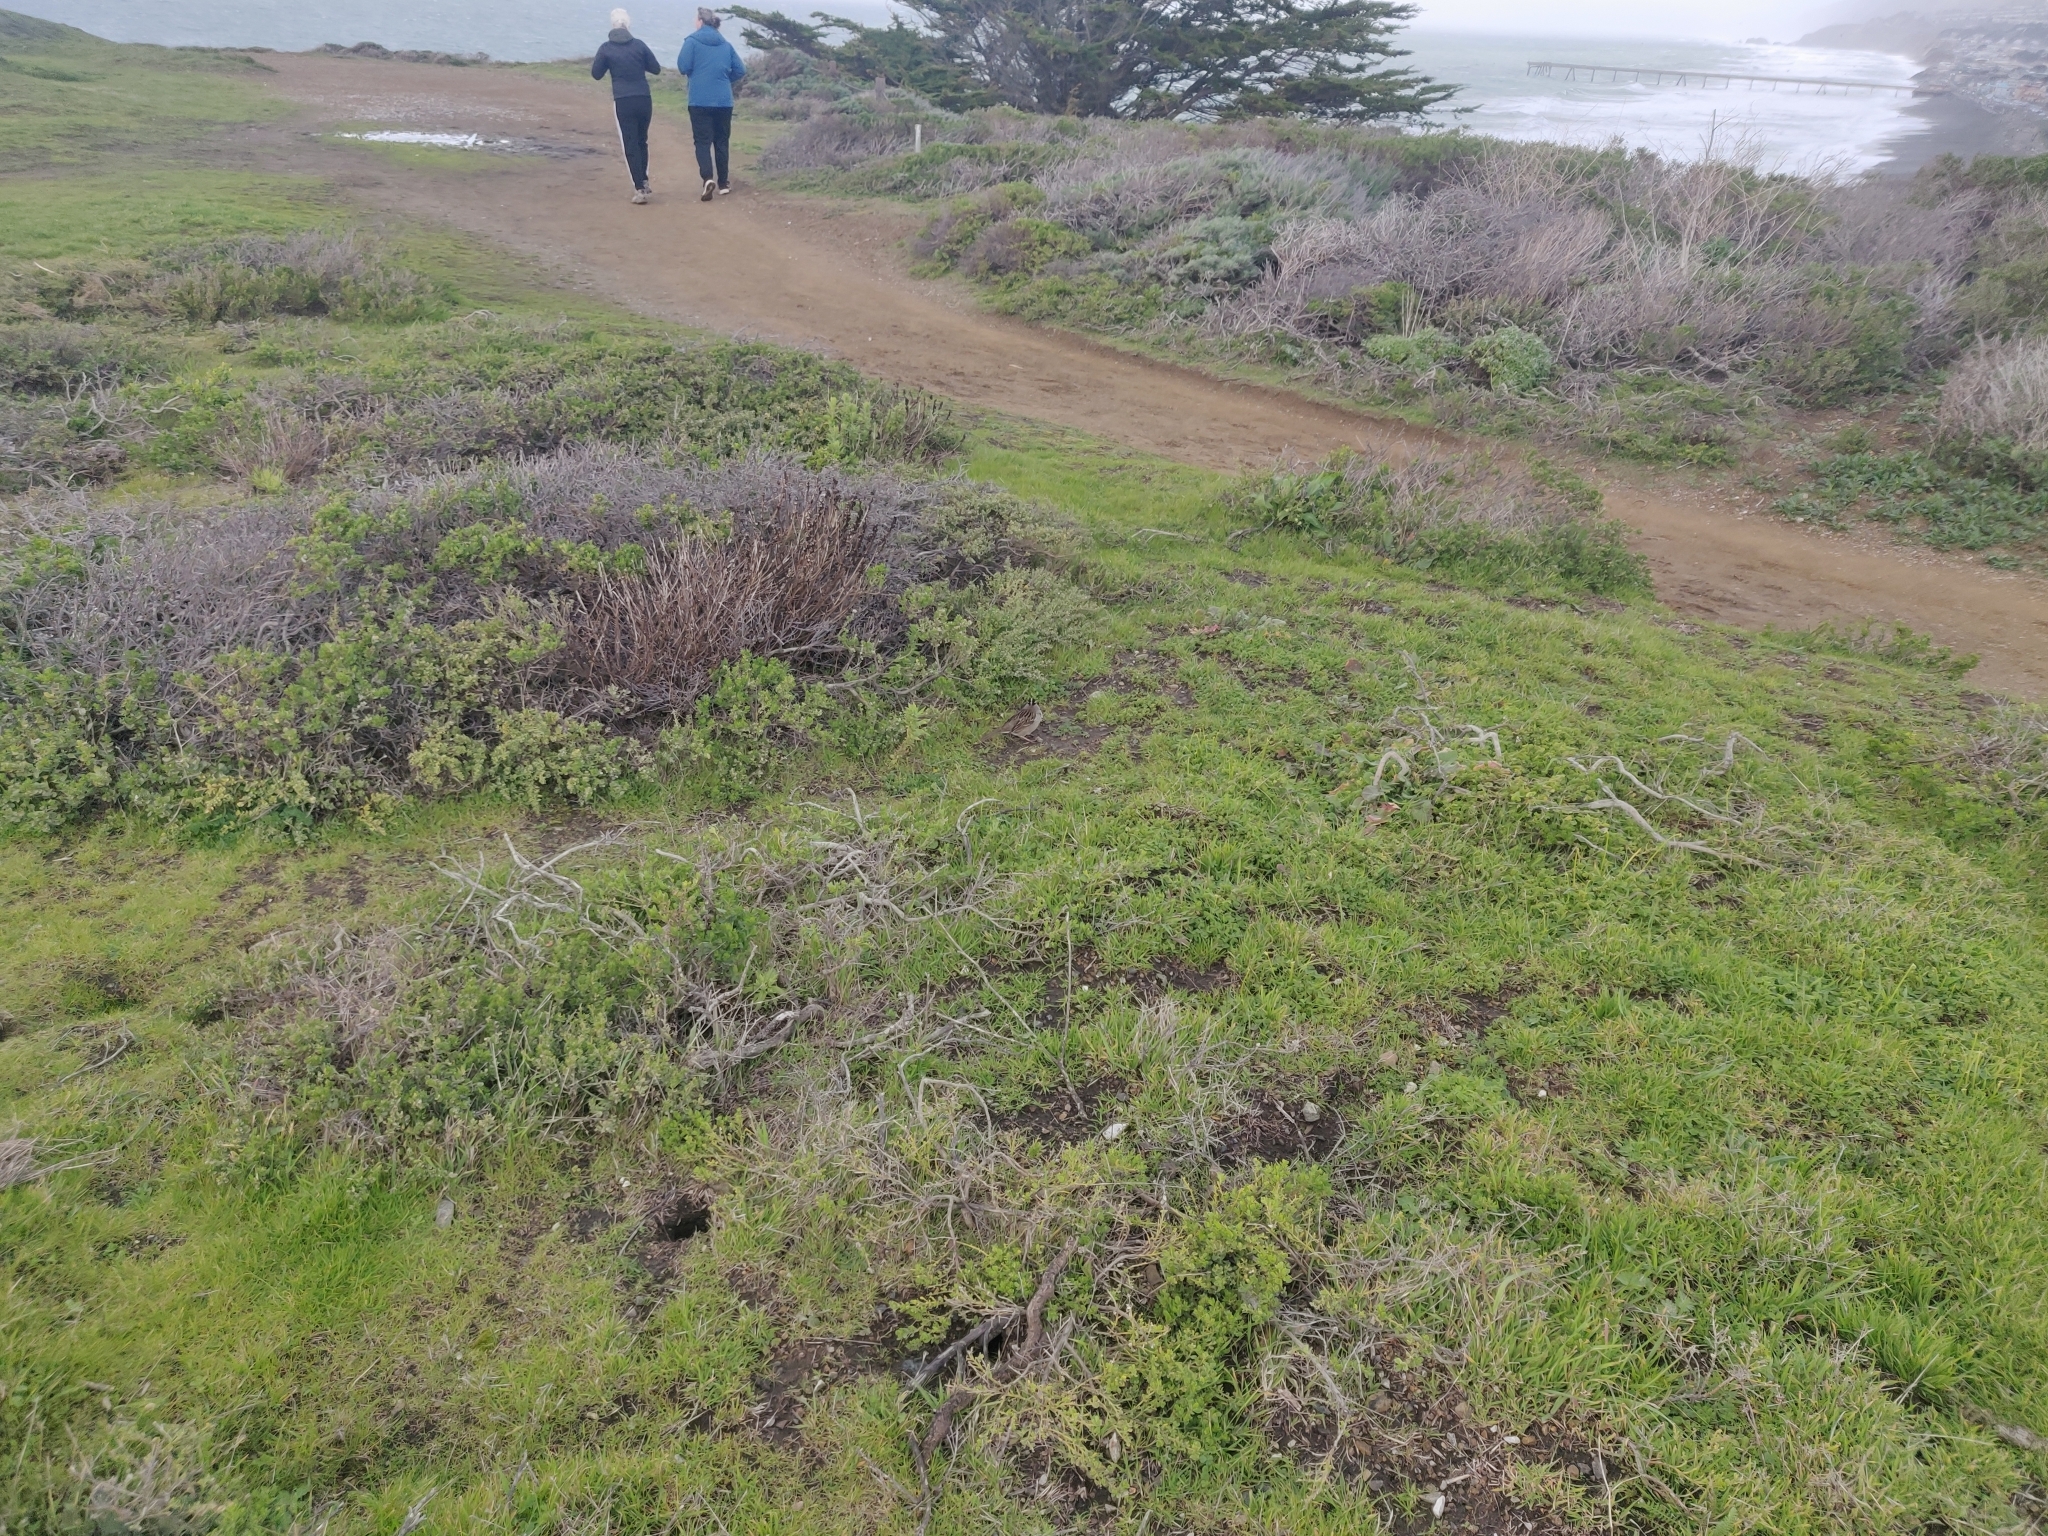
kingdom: Animalia
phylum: Chordata
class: Aves
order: Passeriformes
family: Passerellidae
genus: Zonotrichia
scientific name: Zonotrichia leucophrys
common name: White-crowned sparrow
